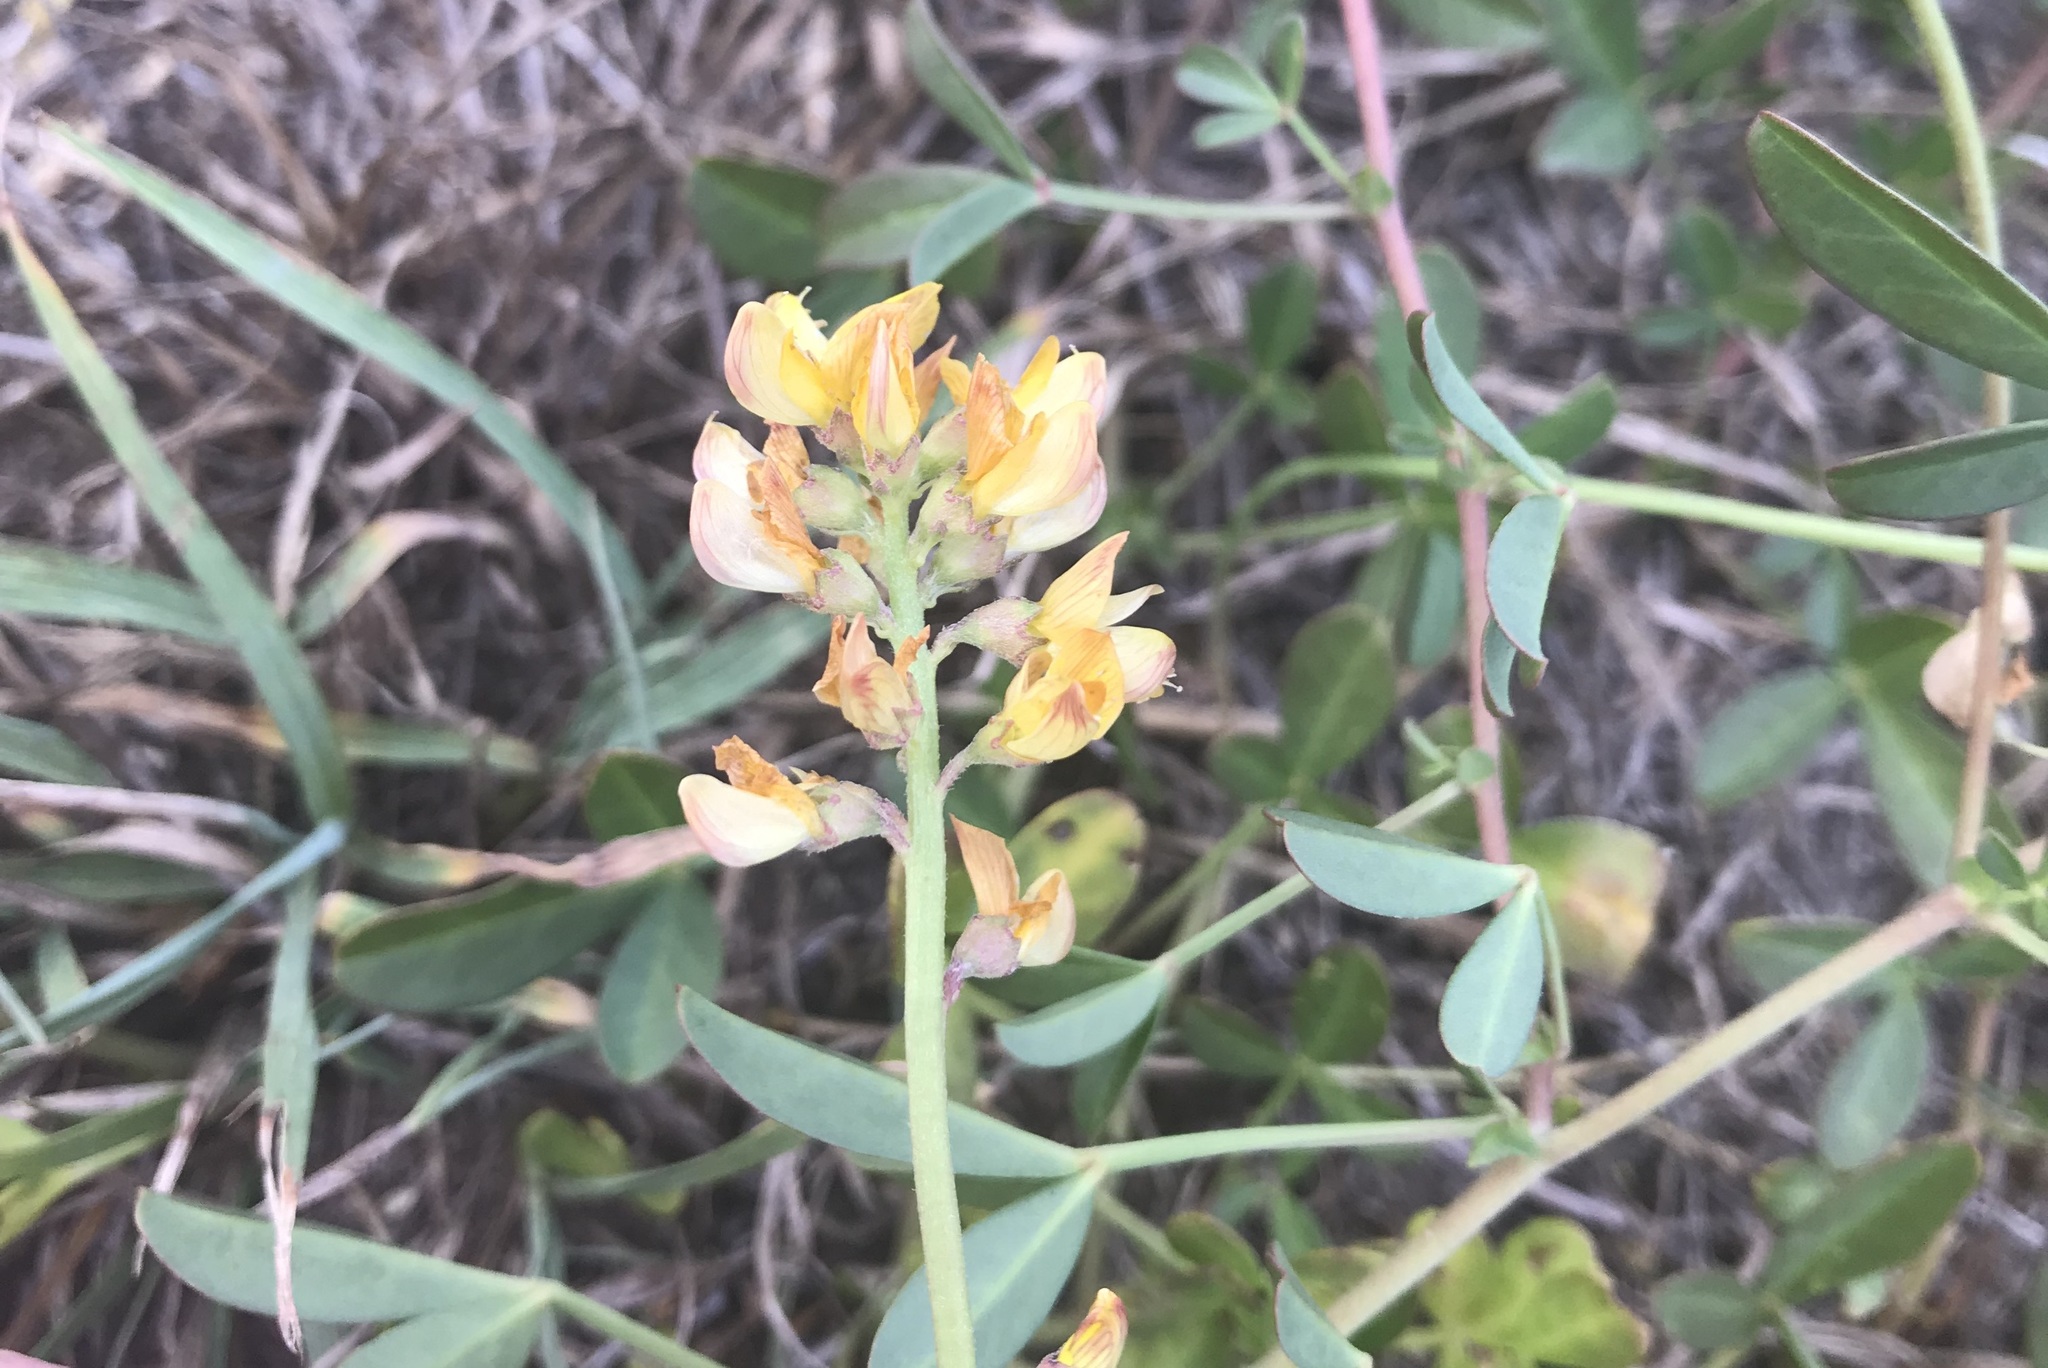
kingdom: Plantae
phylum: Tracheophyta
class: Magnoliopsida
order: Fabales
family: Fabaceae
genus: Listia
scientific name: Listia bainesii
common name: Lotononis
